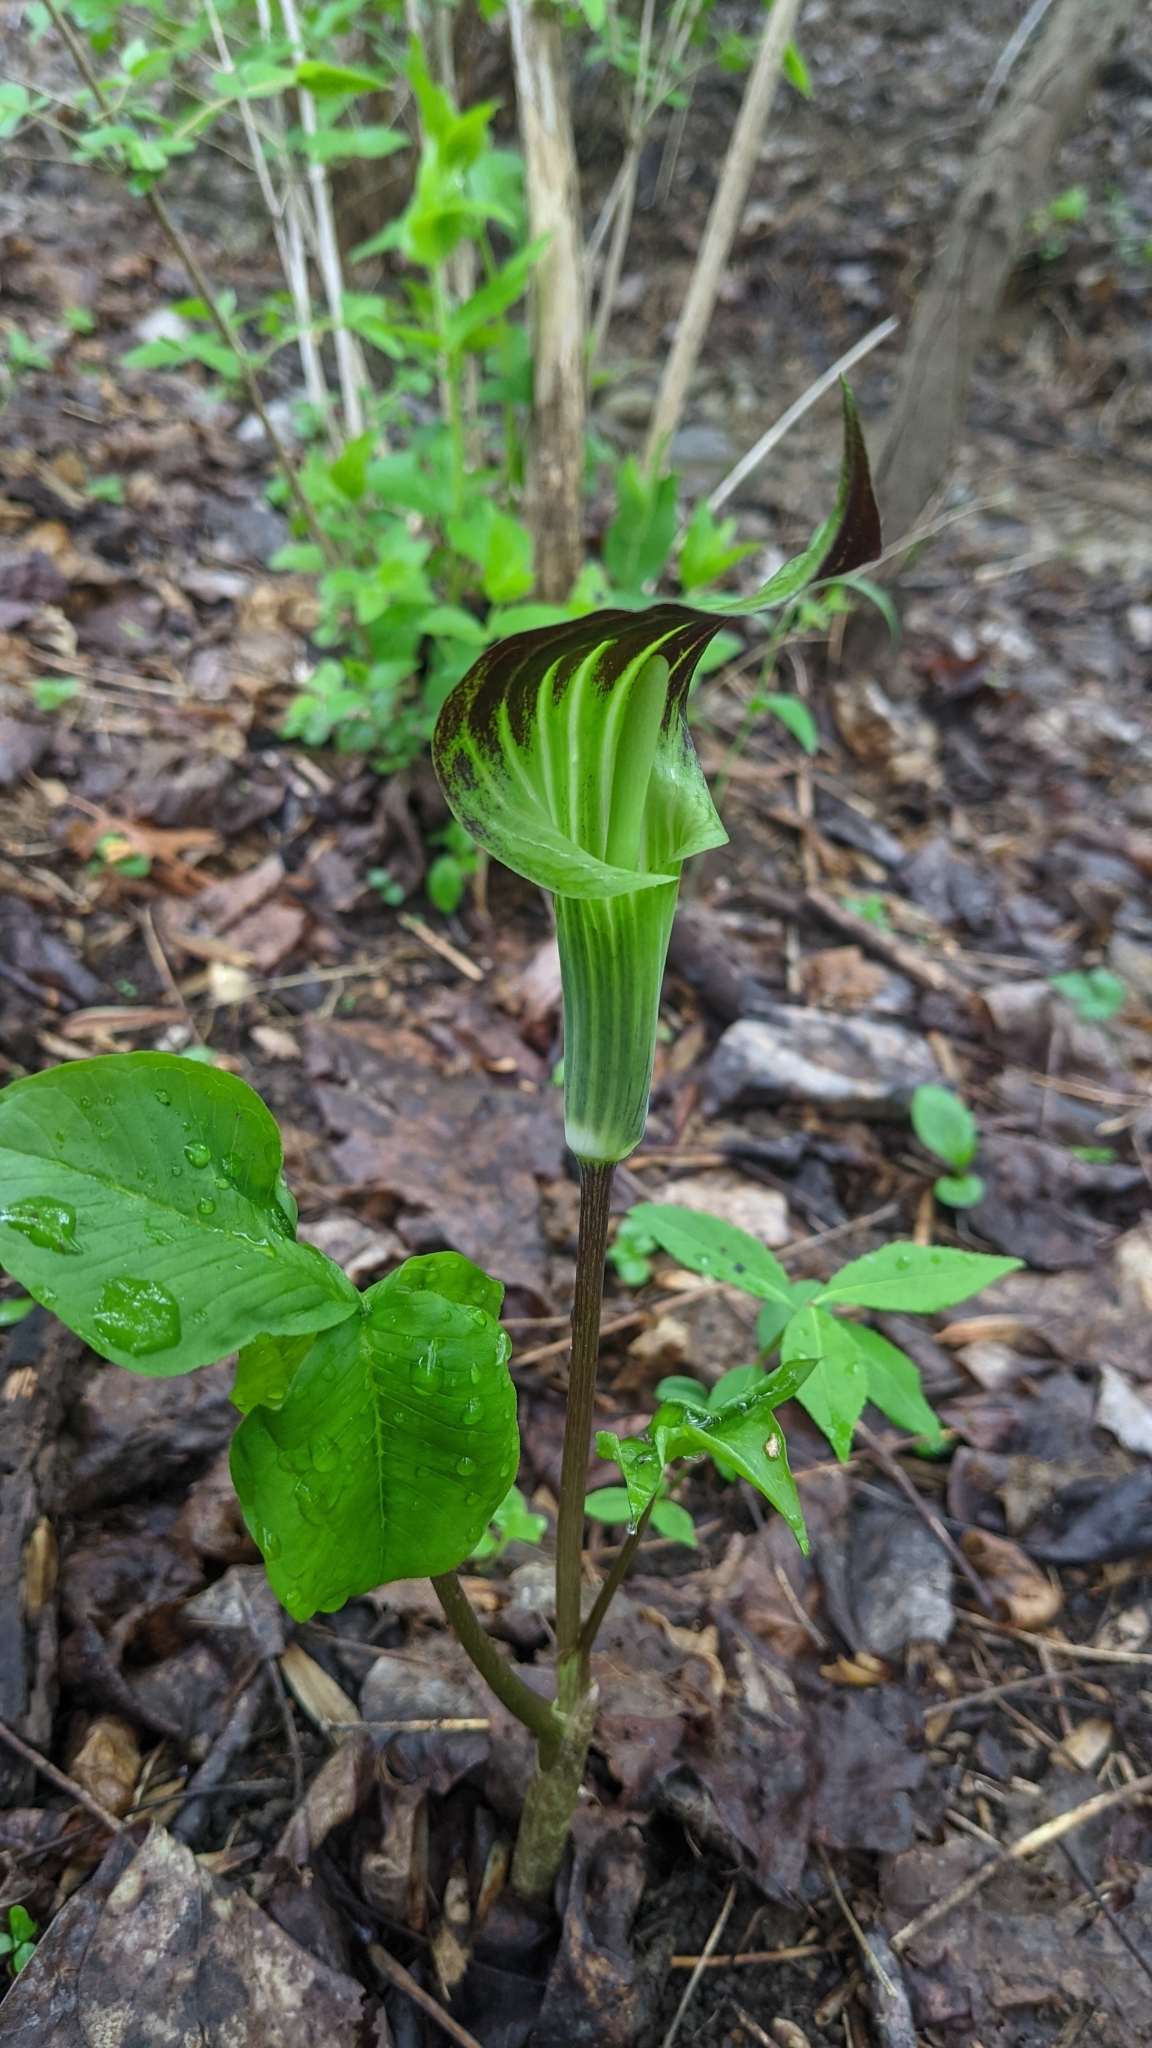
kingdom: Plantae
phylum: Tracheophyta
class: Liliopsida
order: Alismatales
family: Araceae
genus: Arisaema
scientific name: Arisaema triphyllum
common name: Jack-in-the-pulpit
